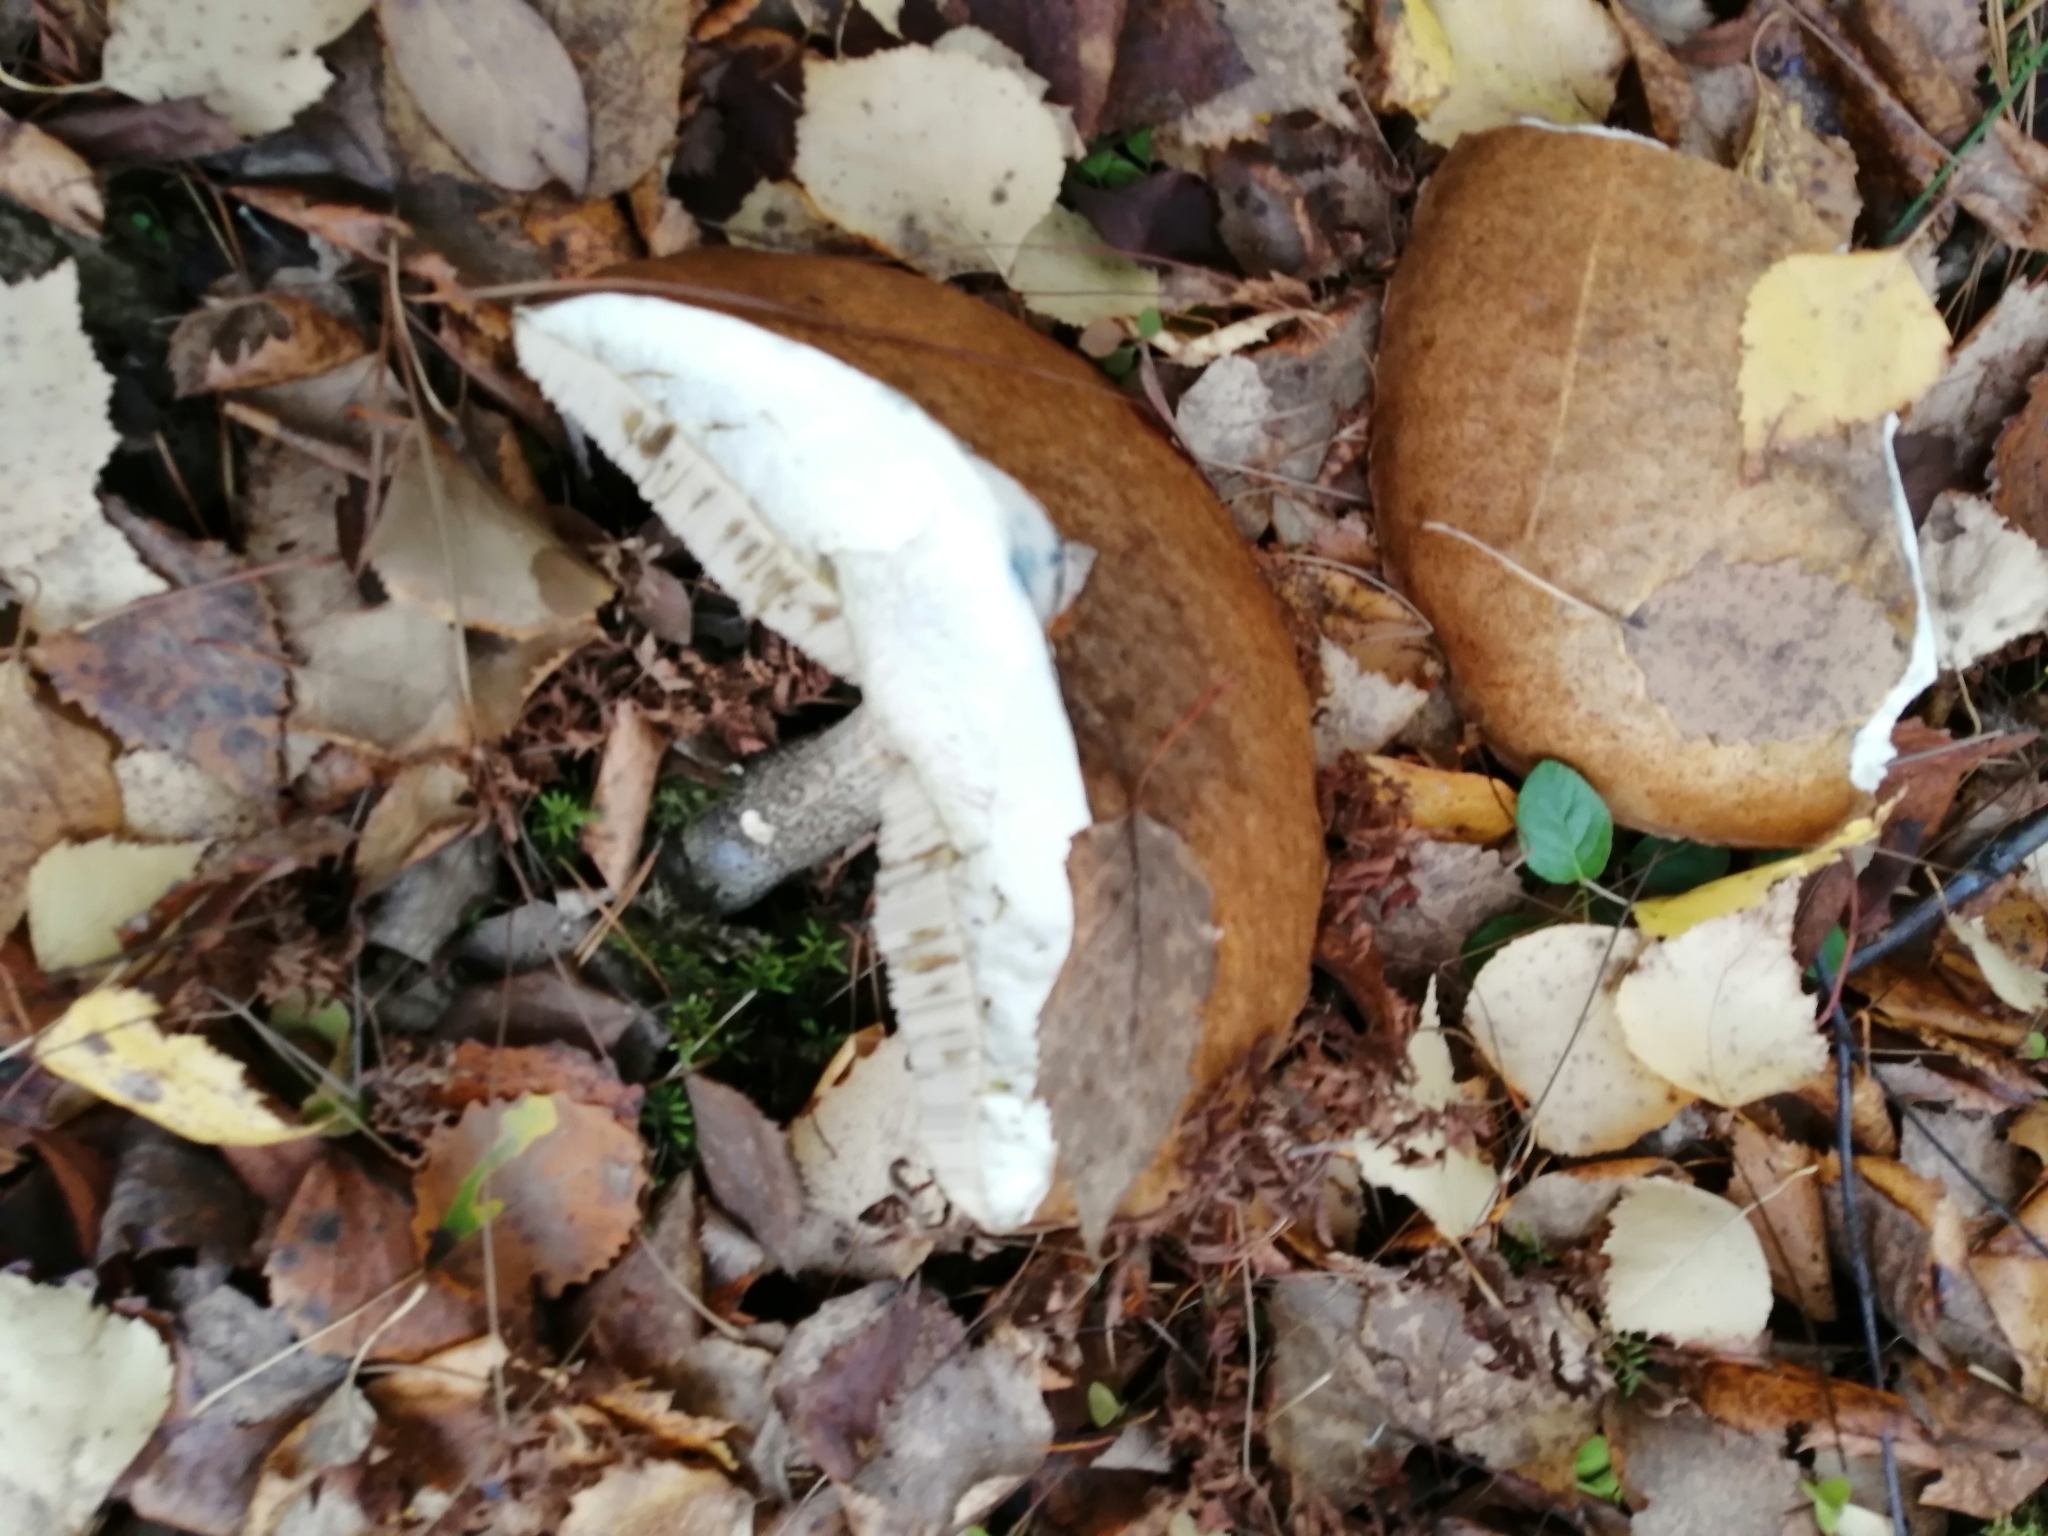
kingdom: Fungi
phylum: Basidiomycota
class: Agaricomycetes
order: Boletales
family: Boletaceae
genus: Leccinum
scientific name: Leccinum scabrum
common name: Blushing bolete
